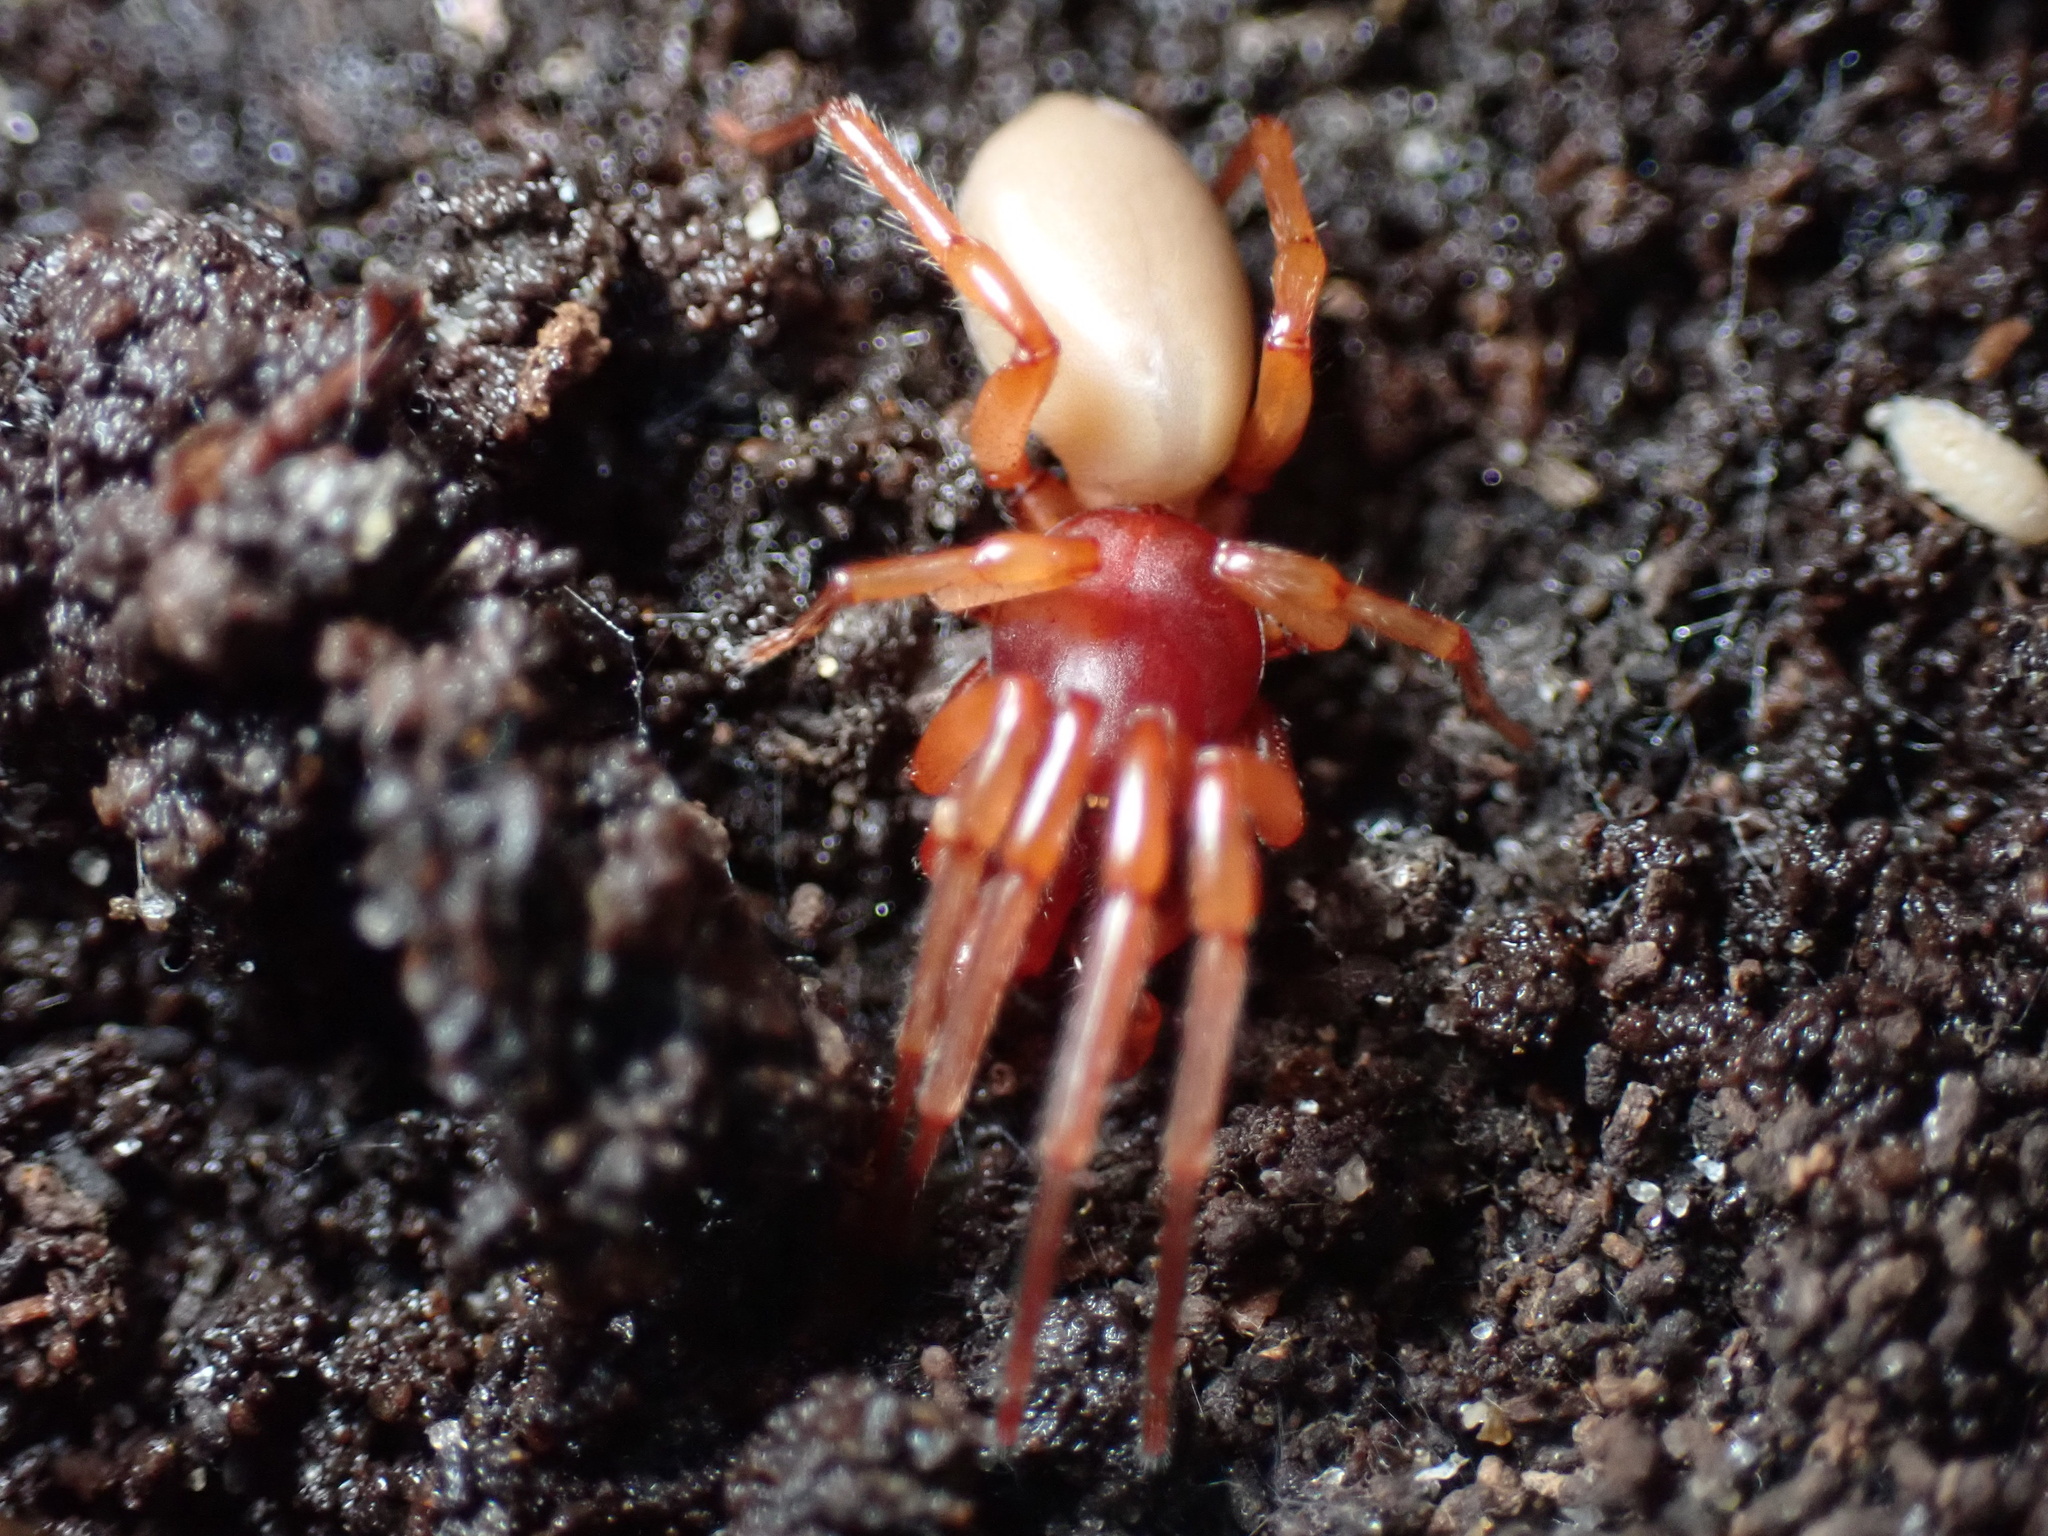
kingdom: Animalia
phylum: Arthropoda
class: Arachnida
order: Araneae
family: Dysderidae
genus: Dysdera
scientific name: Dysdera crocata
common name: Woodlouse spider
